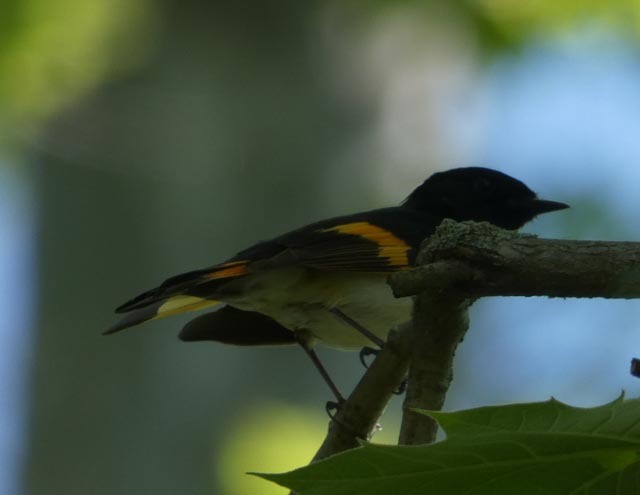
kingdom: Animalia
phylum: Chordata
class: Aves
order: Passeriformes
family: Parulidae
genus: Setophaga
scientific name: Setophaga ruticilla
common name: American redstart
